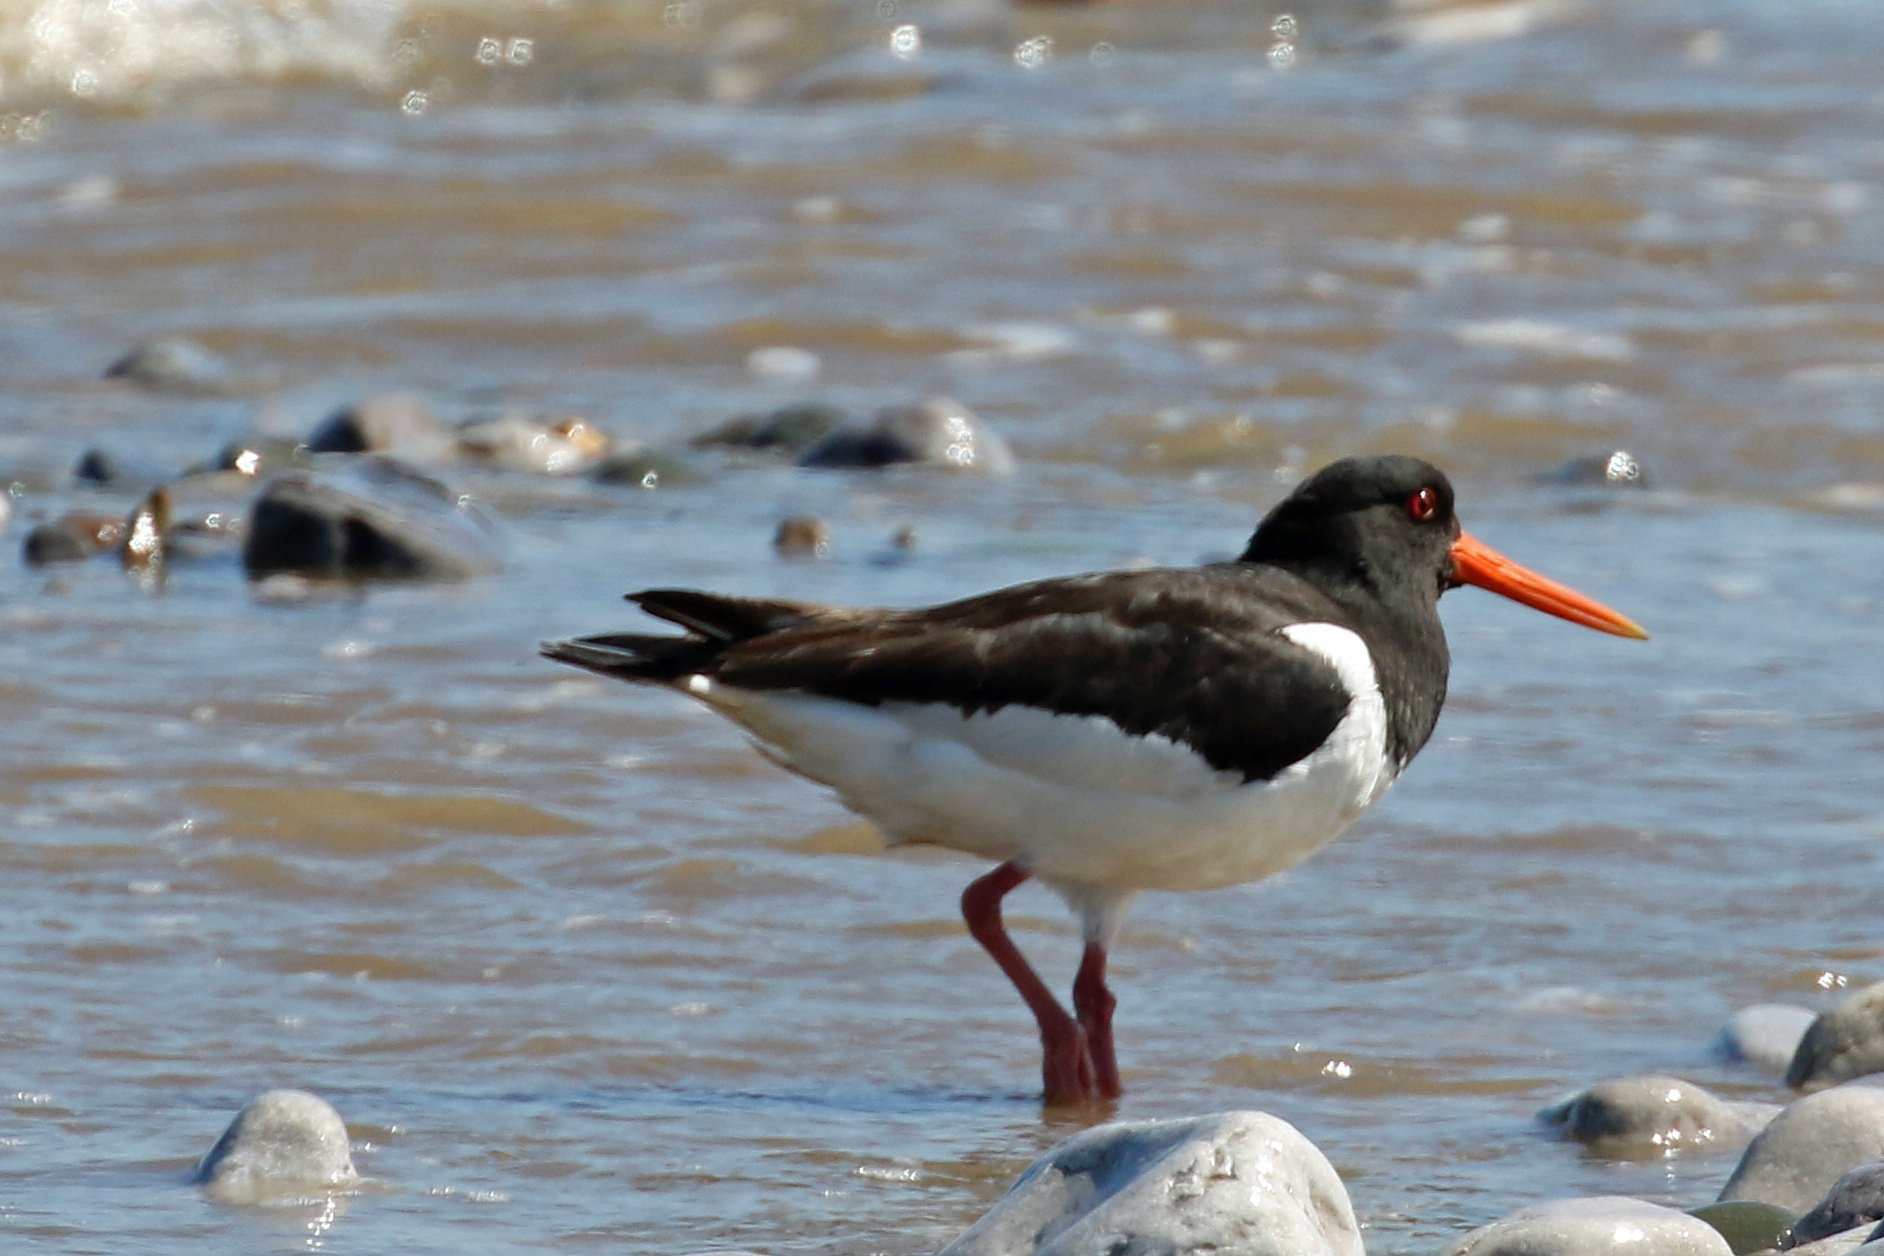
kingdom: Animalia
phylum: Chordata
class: Aves
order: Charadriiformes
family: Haematopodidae
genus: Haematopus
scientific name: Haematopus ostralegus
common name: Eurasian oystercatcher
